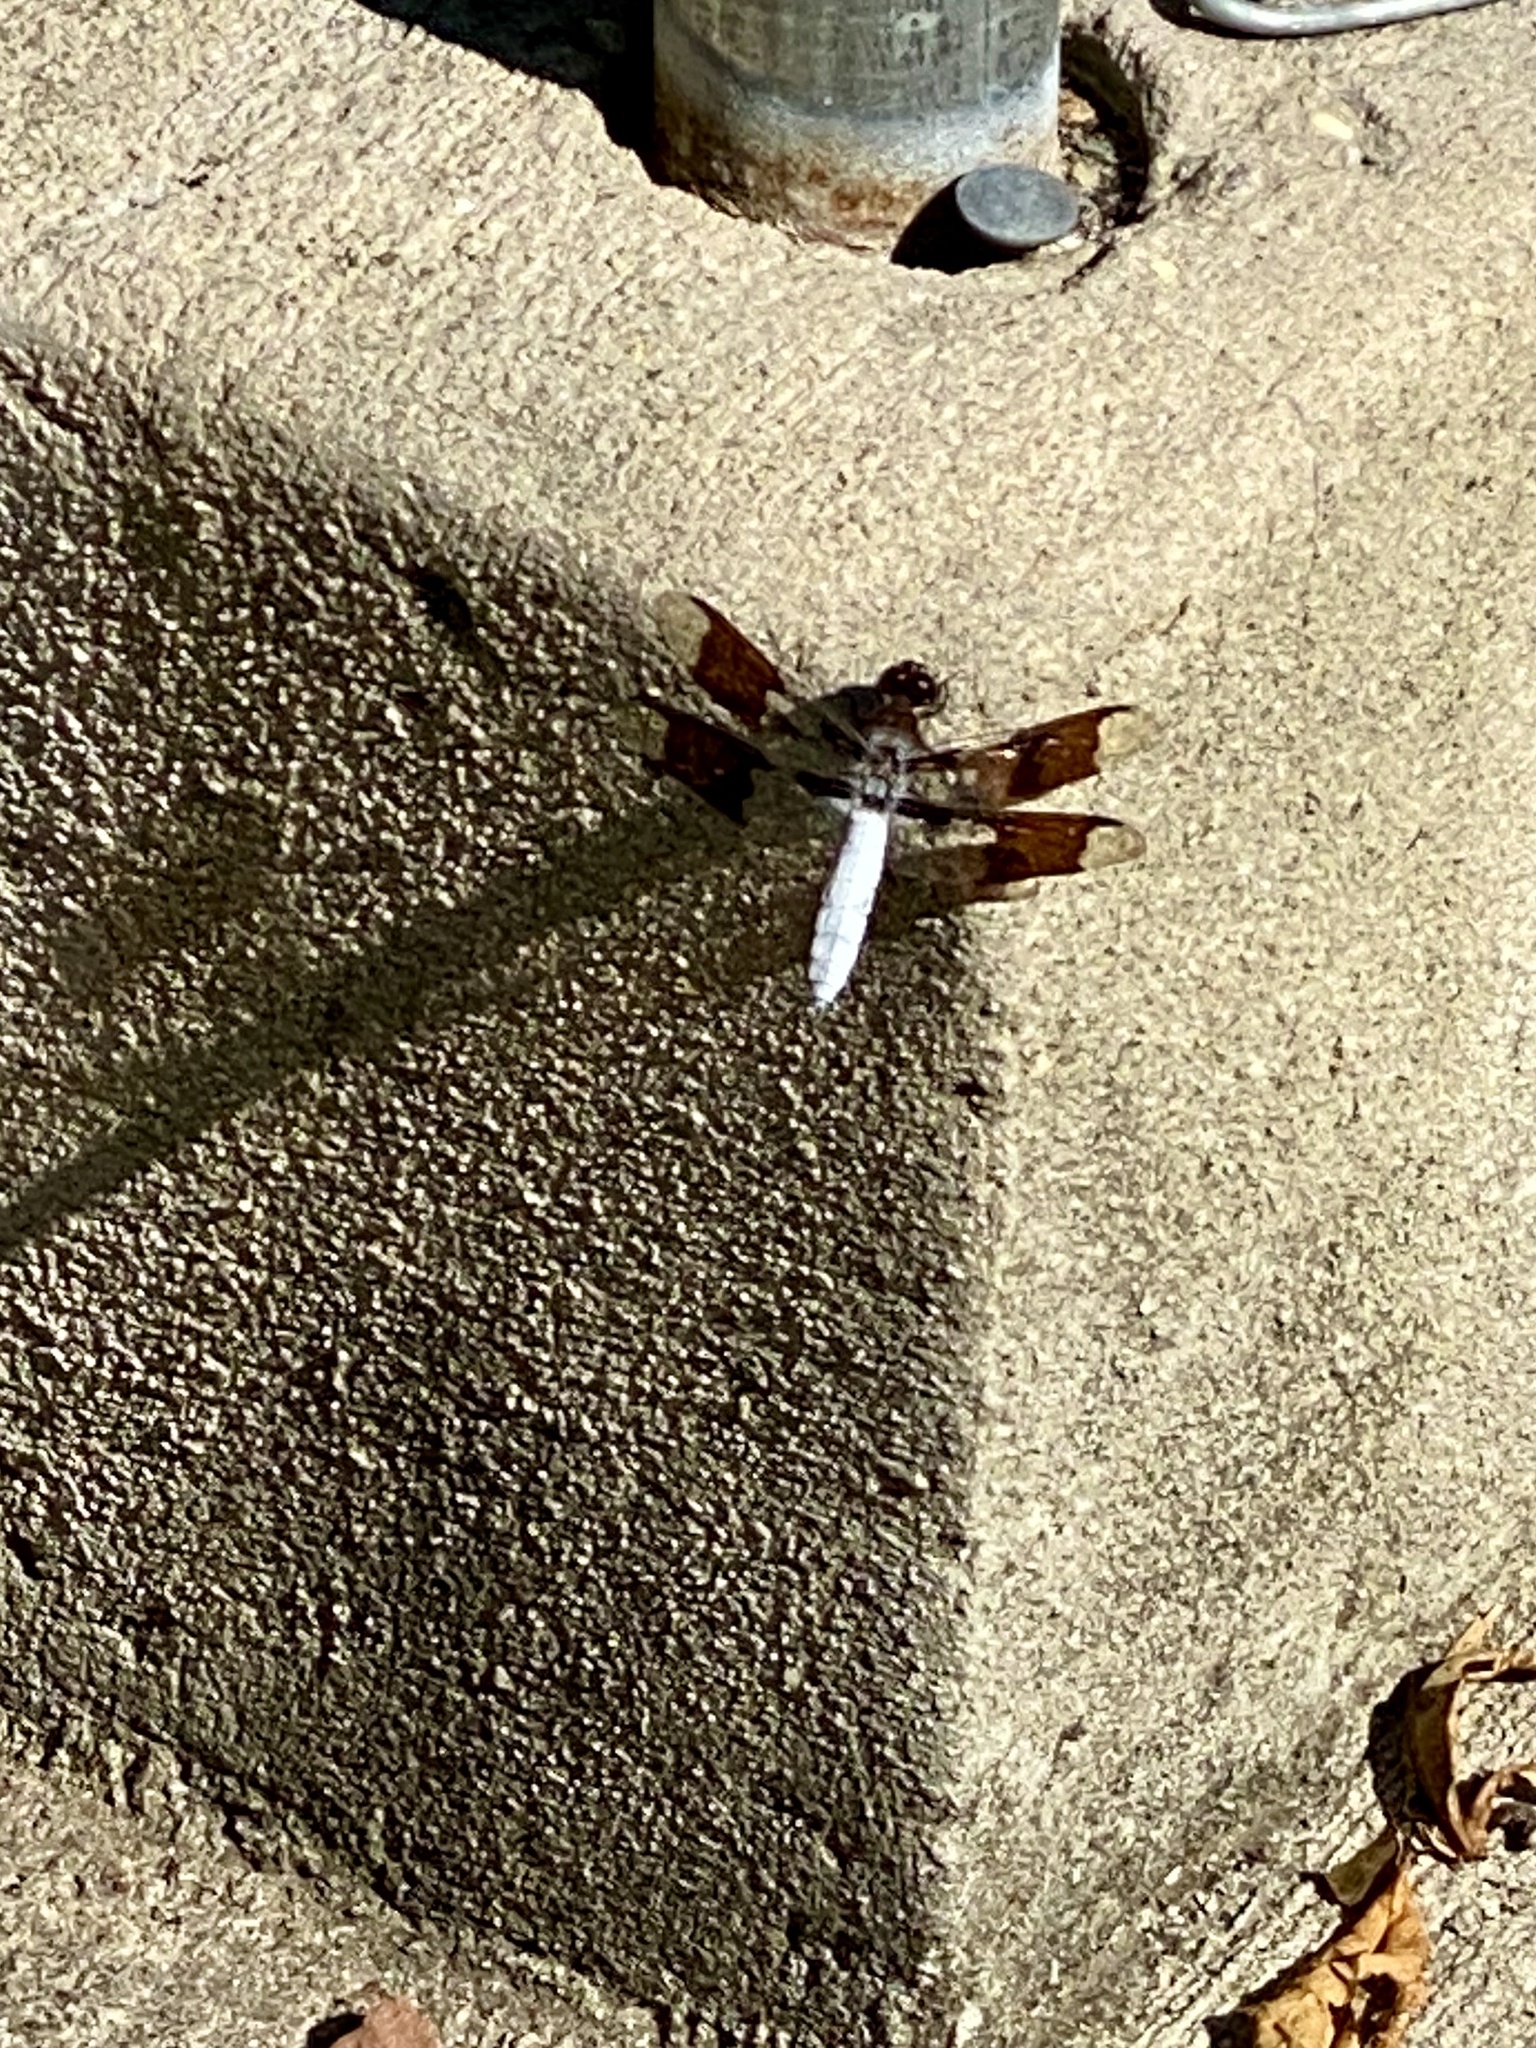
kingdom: Animalia
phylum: Arthropoda
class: Insecta
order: Odonata
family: Libellulidae
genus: Plathemis
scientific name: Plathemis lydia
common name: Common whitetail
